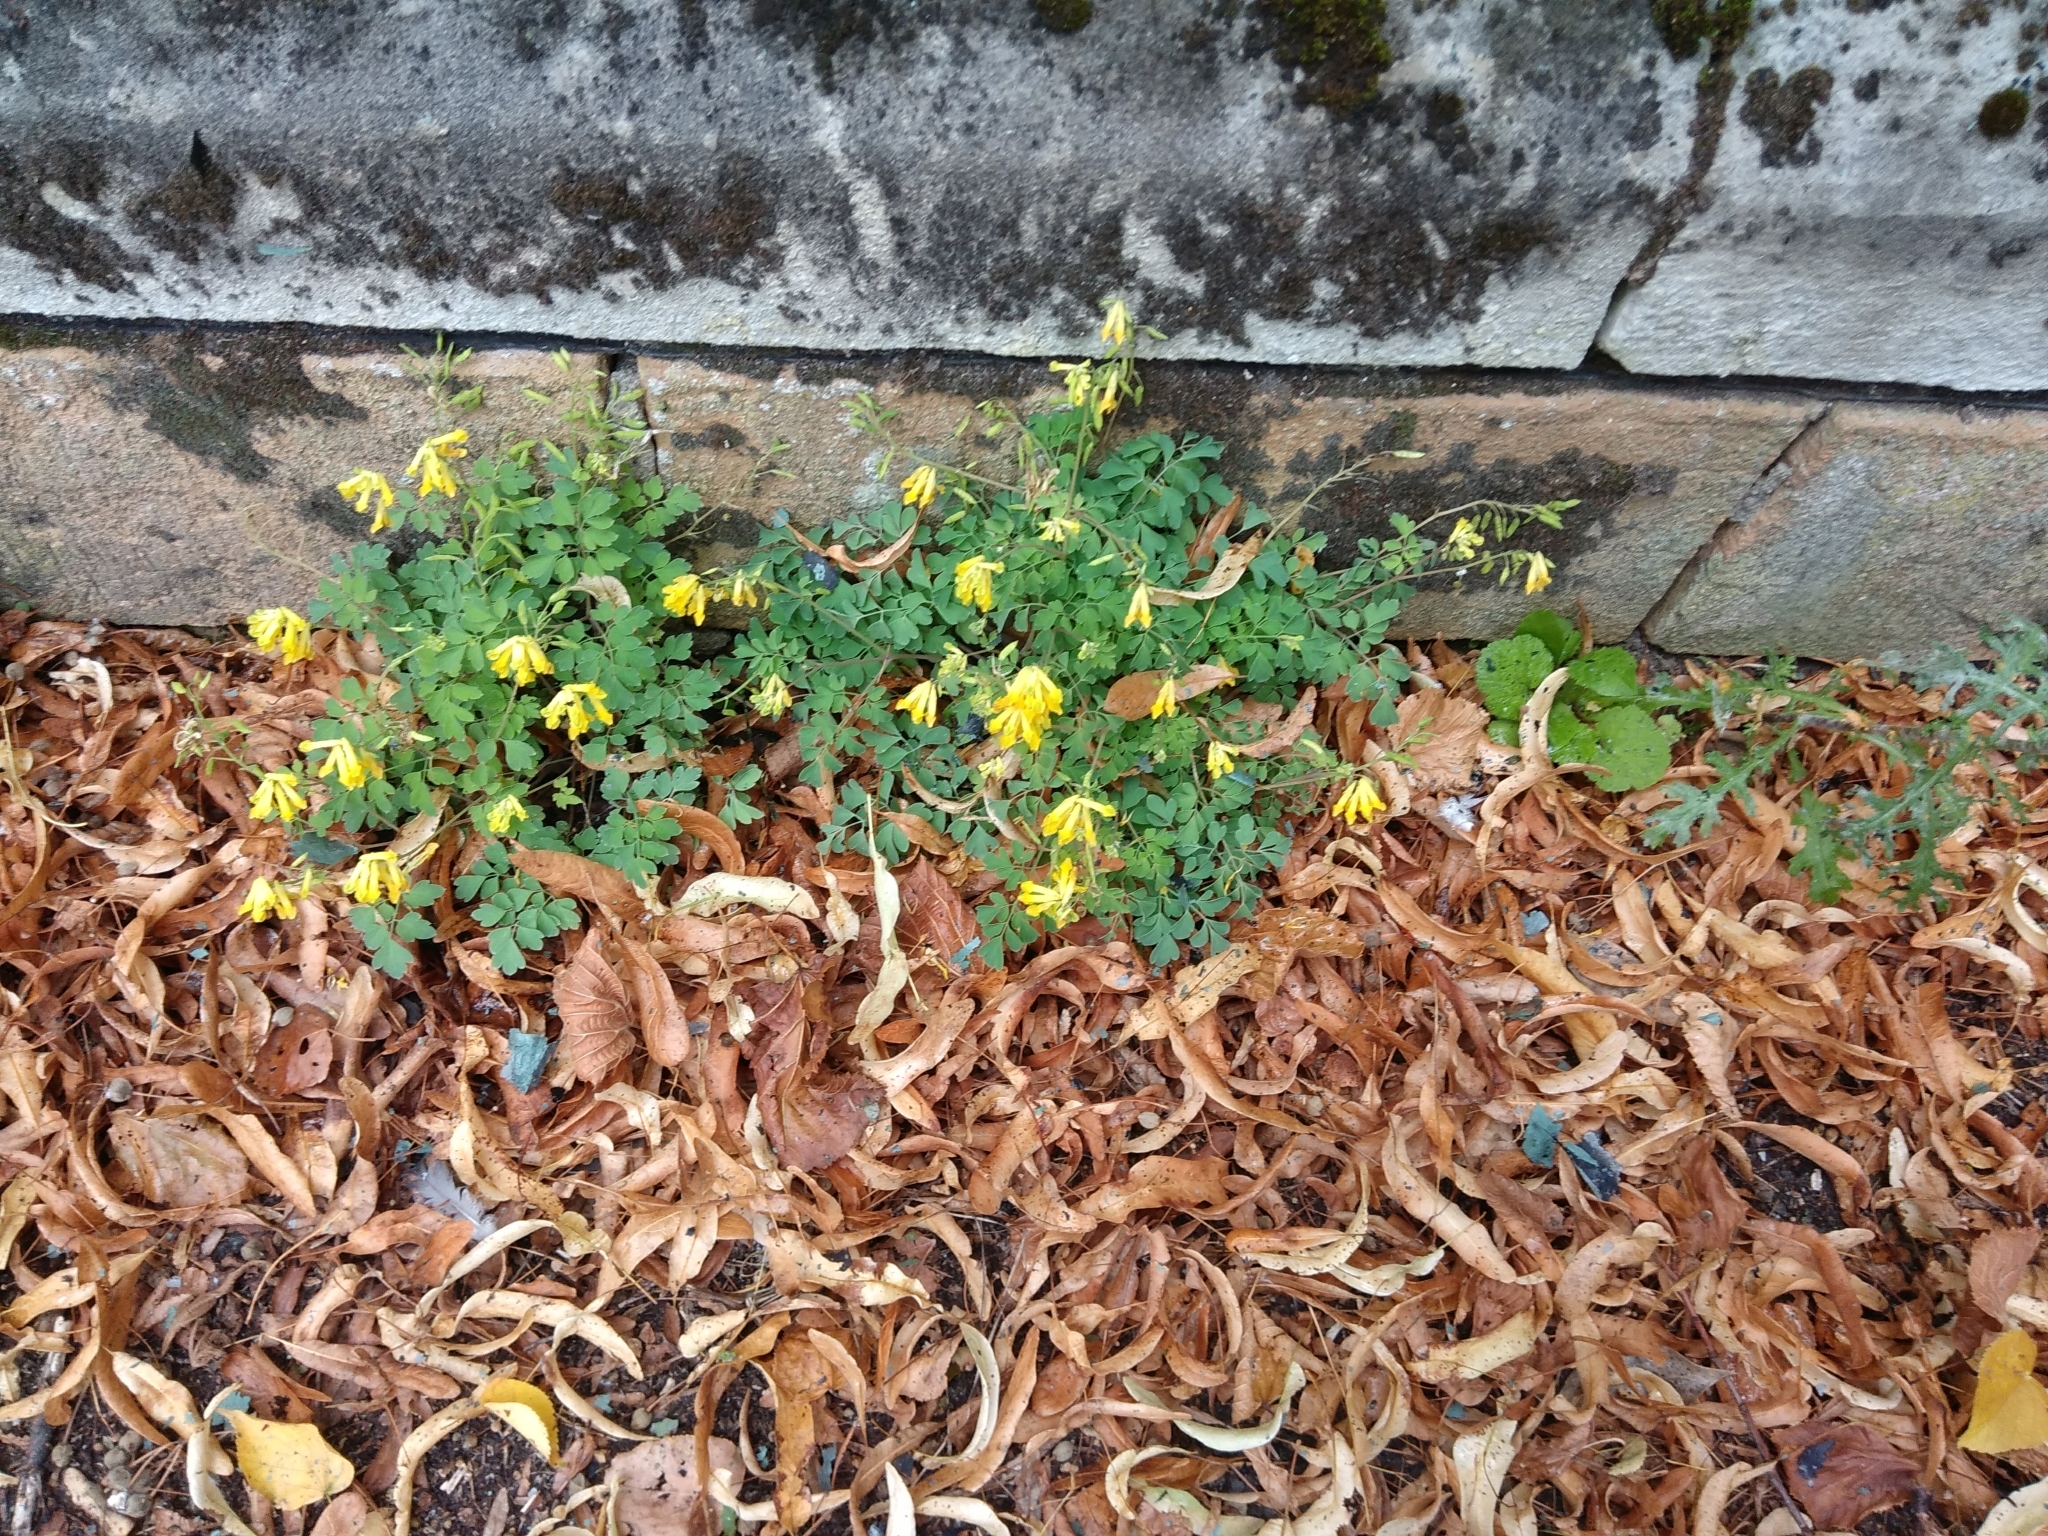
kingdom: Plantae
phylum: Tracheophyta
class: Magnoliopsida
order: Ranunculales
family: Papaveraceae
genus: Pseudofumaria
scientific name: Pseudofumaria lutea
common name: Yellow corydalis
